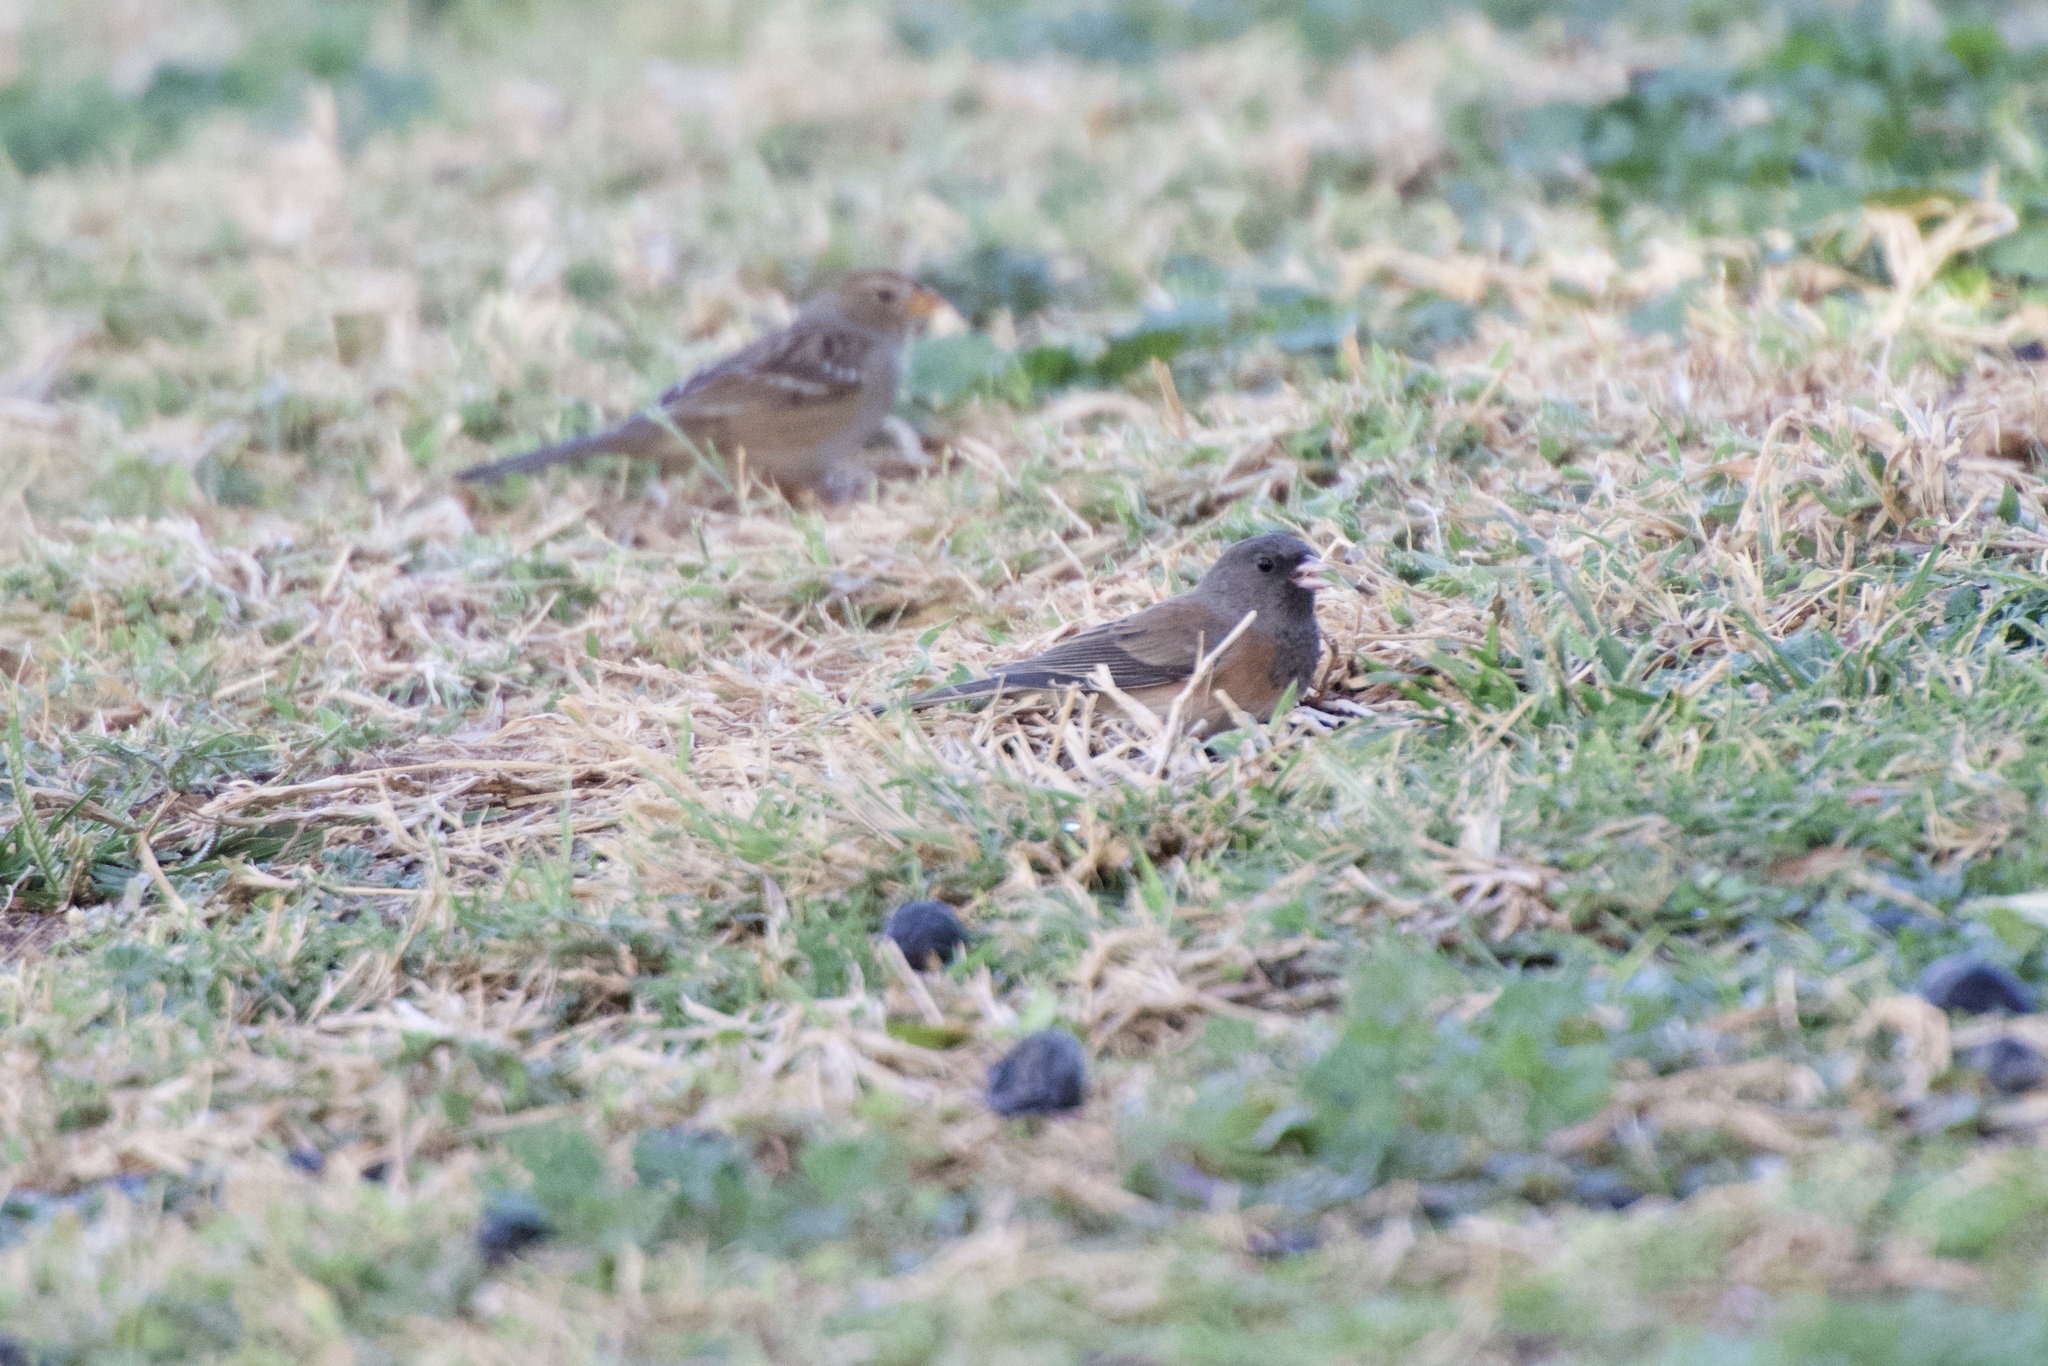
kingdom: Animalia
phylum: Chordata
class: Aves
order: Passeriformes
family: Passerellidae
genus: Junco
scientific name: Junco hyemalis
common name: Dark-eyed junco
